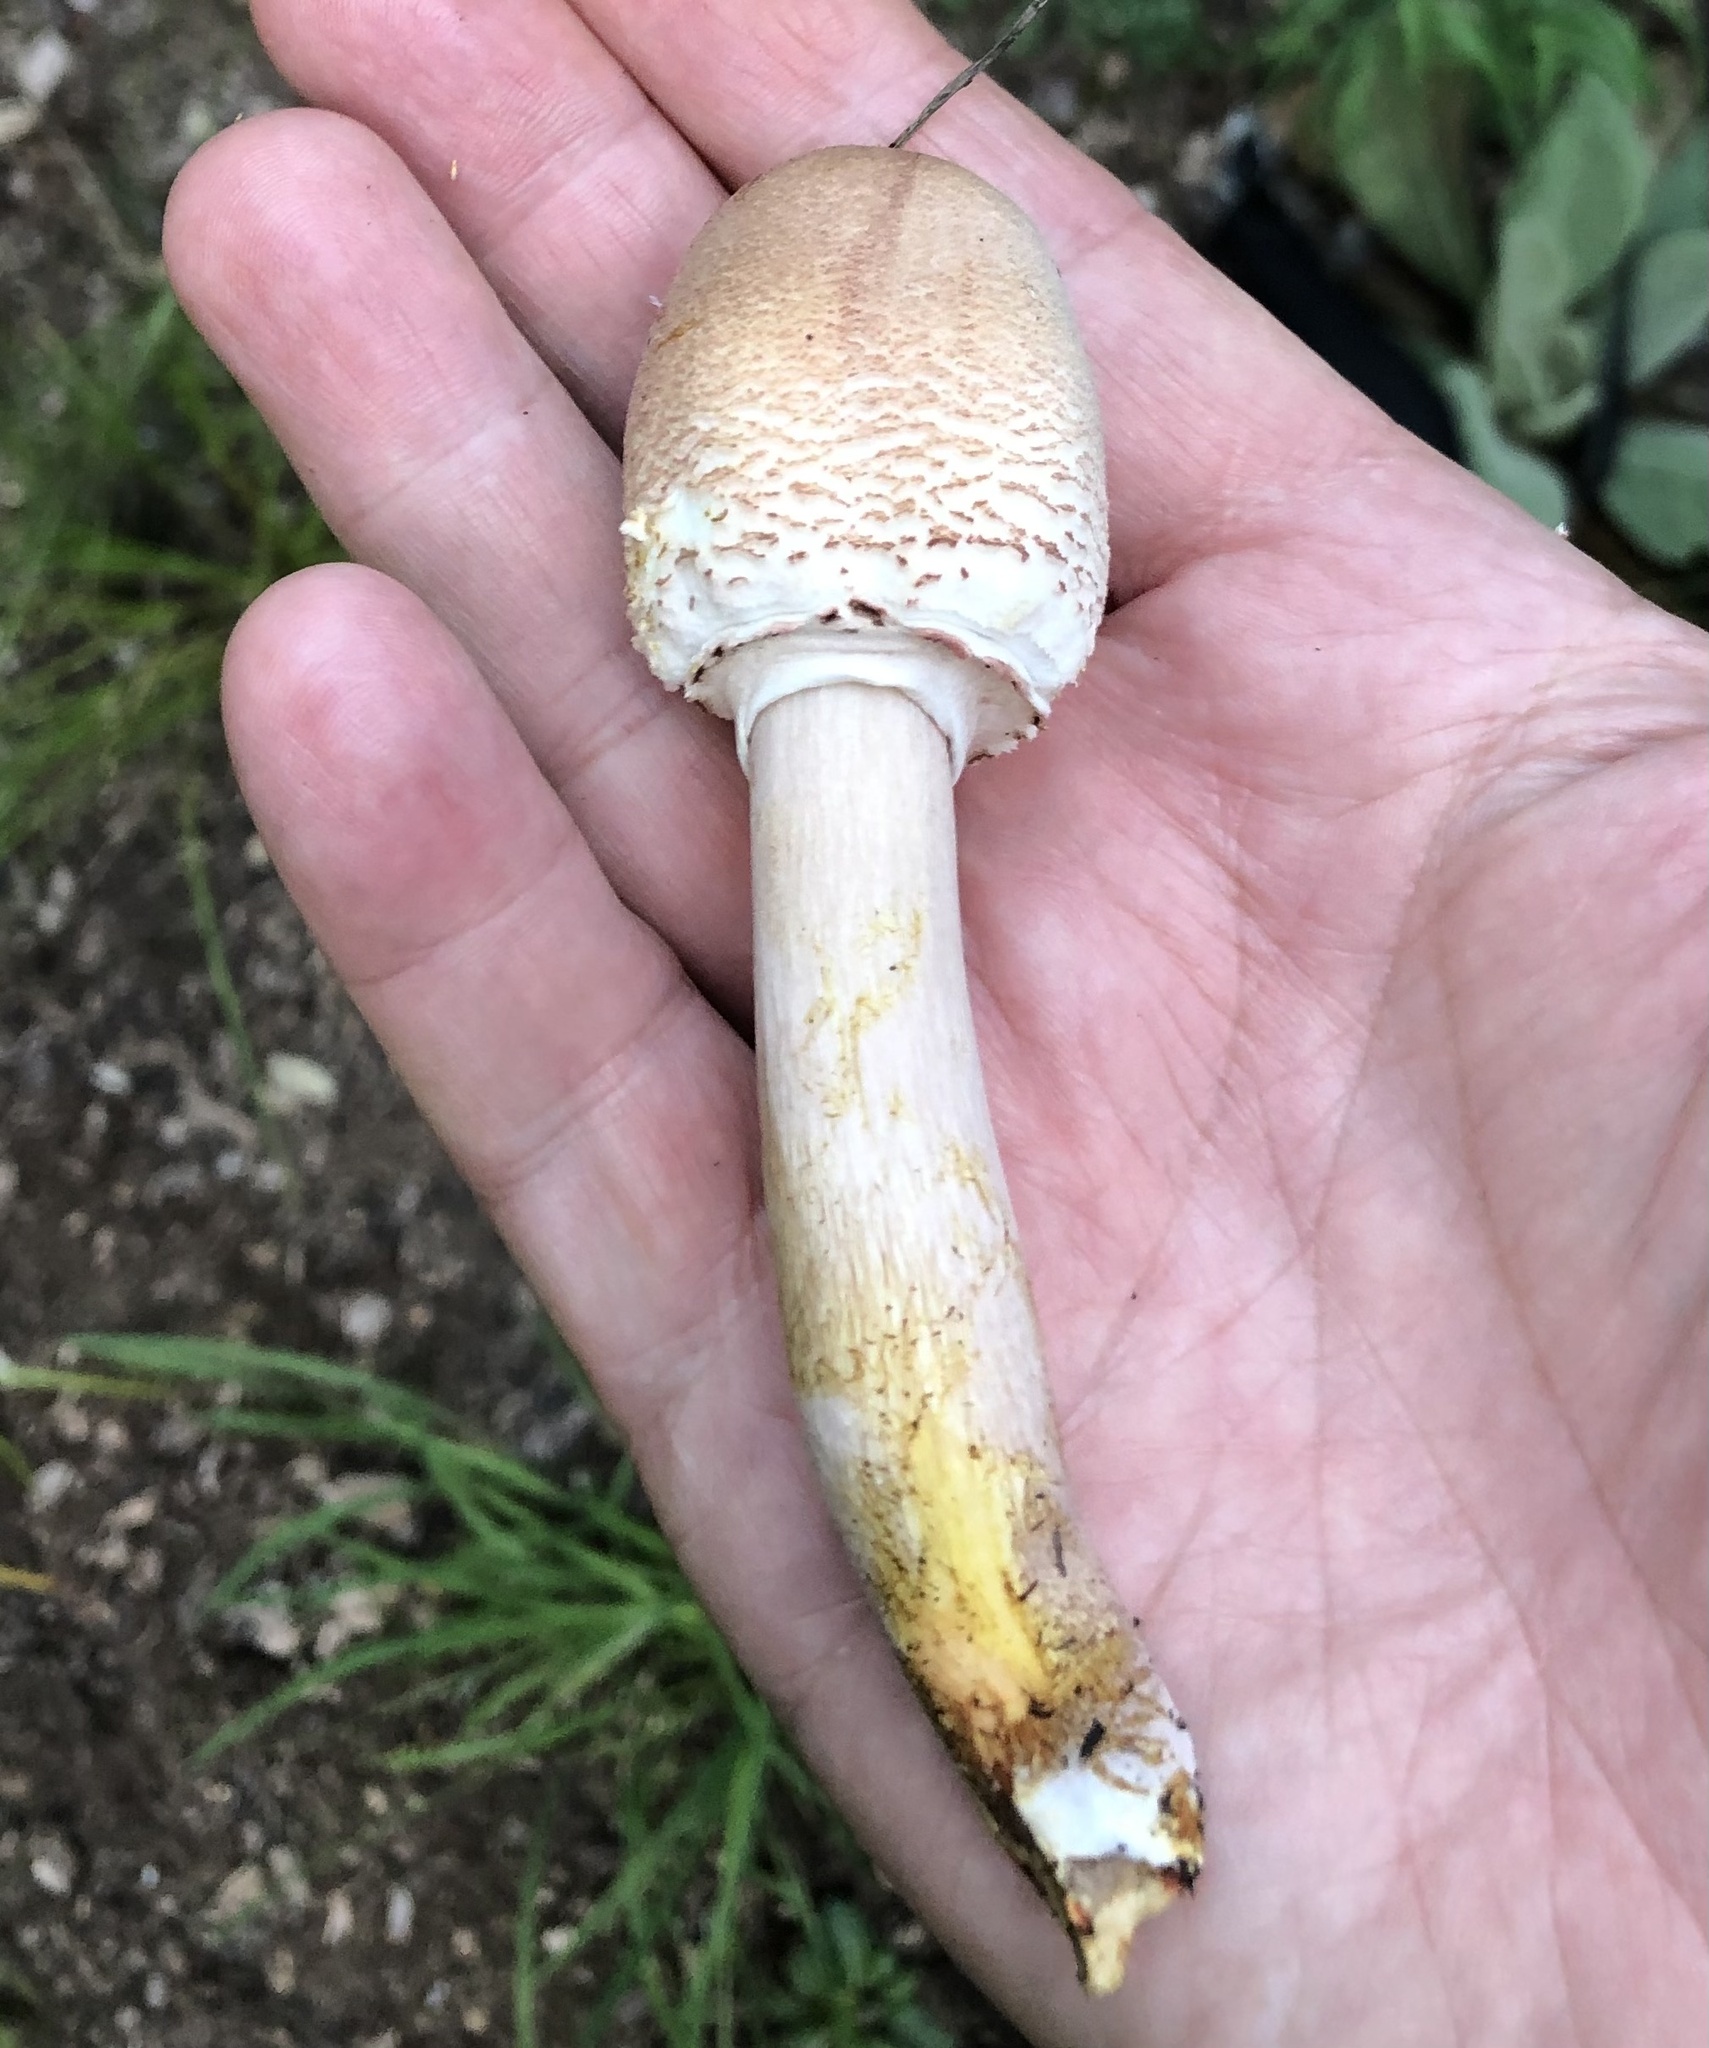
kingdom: Fungi
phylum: Basidiomycota
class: Agaricomycetes
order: Agaricales
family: Agaricaceae
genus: Leucoagaricus
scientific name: Leucoagaricus americanus
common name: Reddening lepiota
